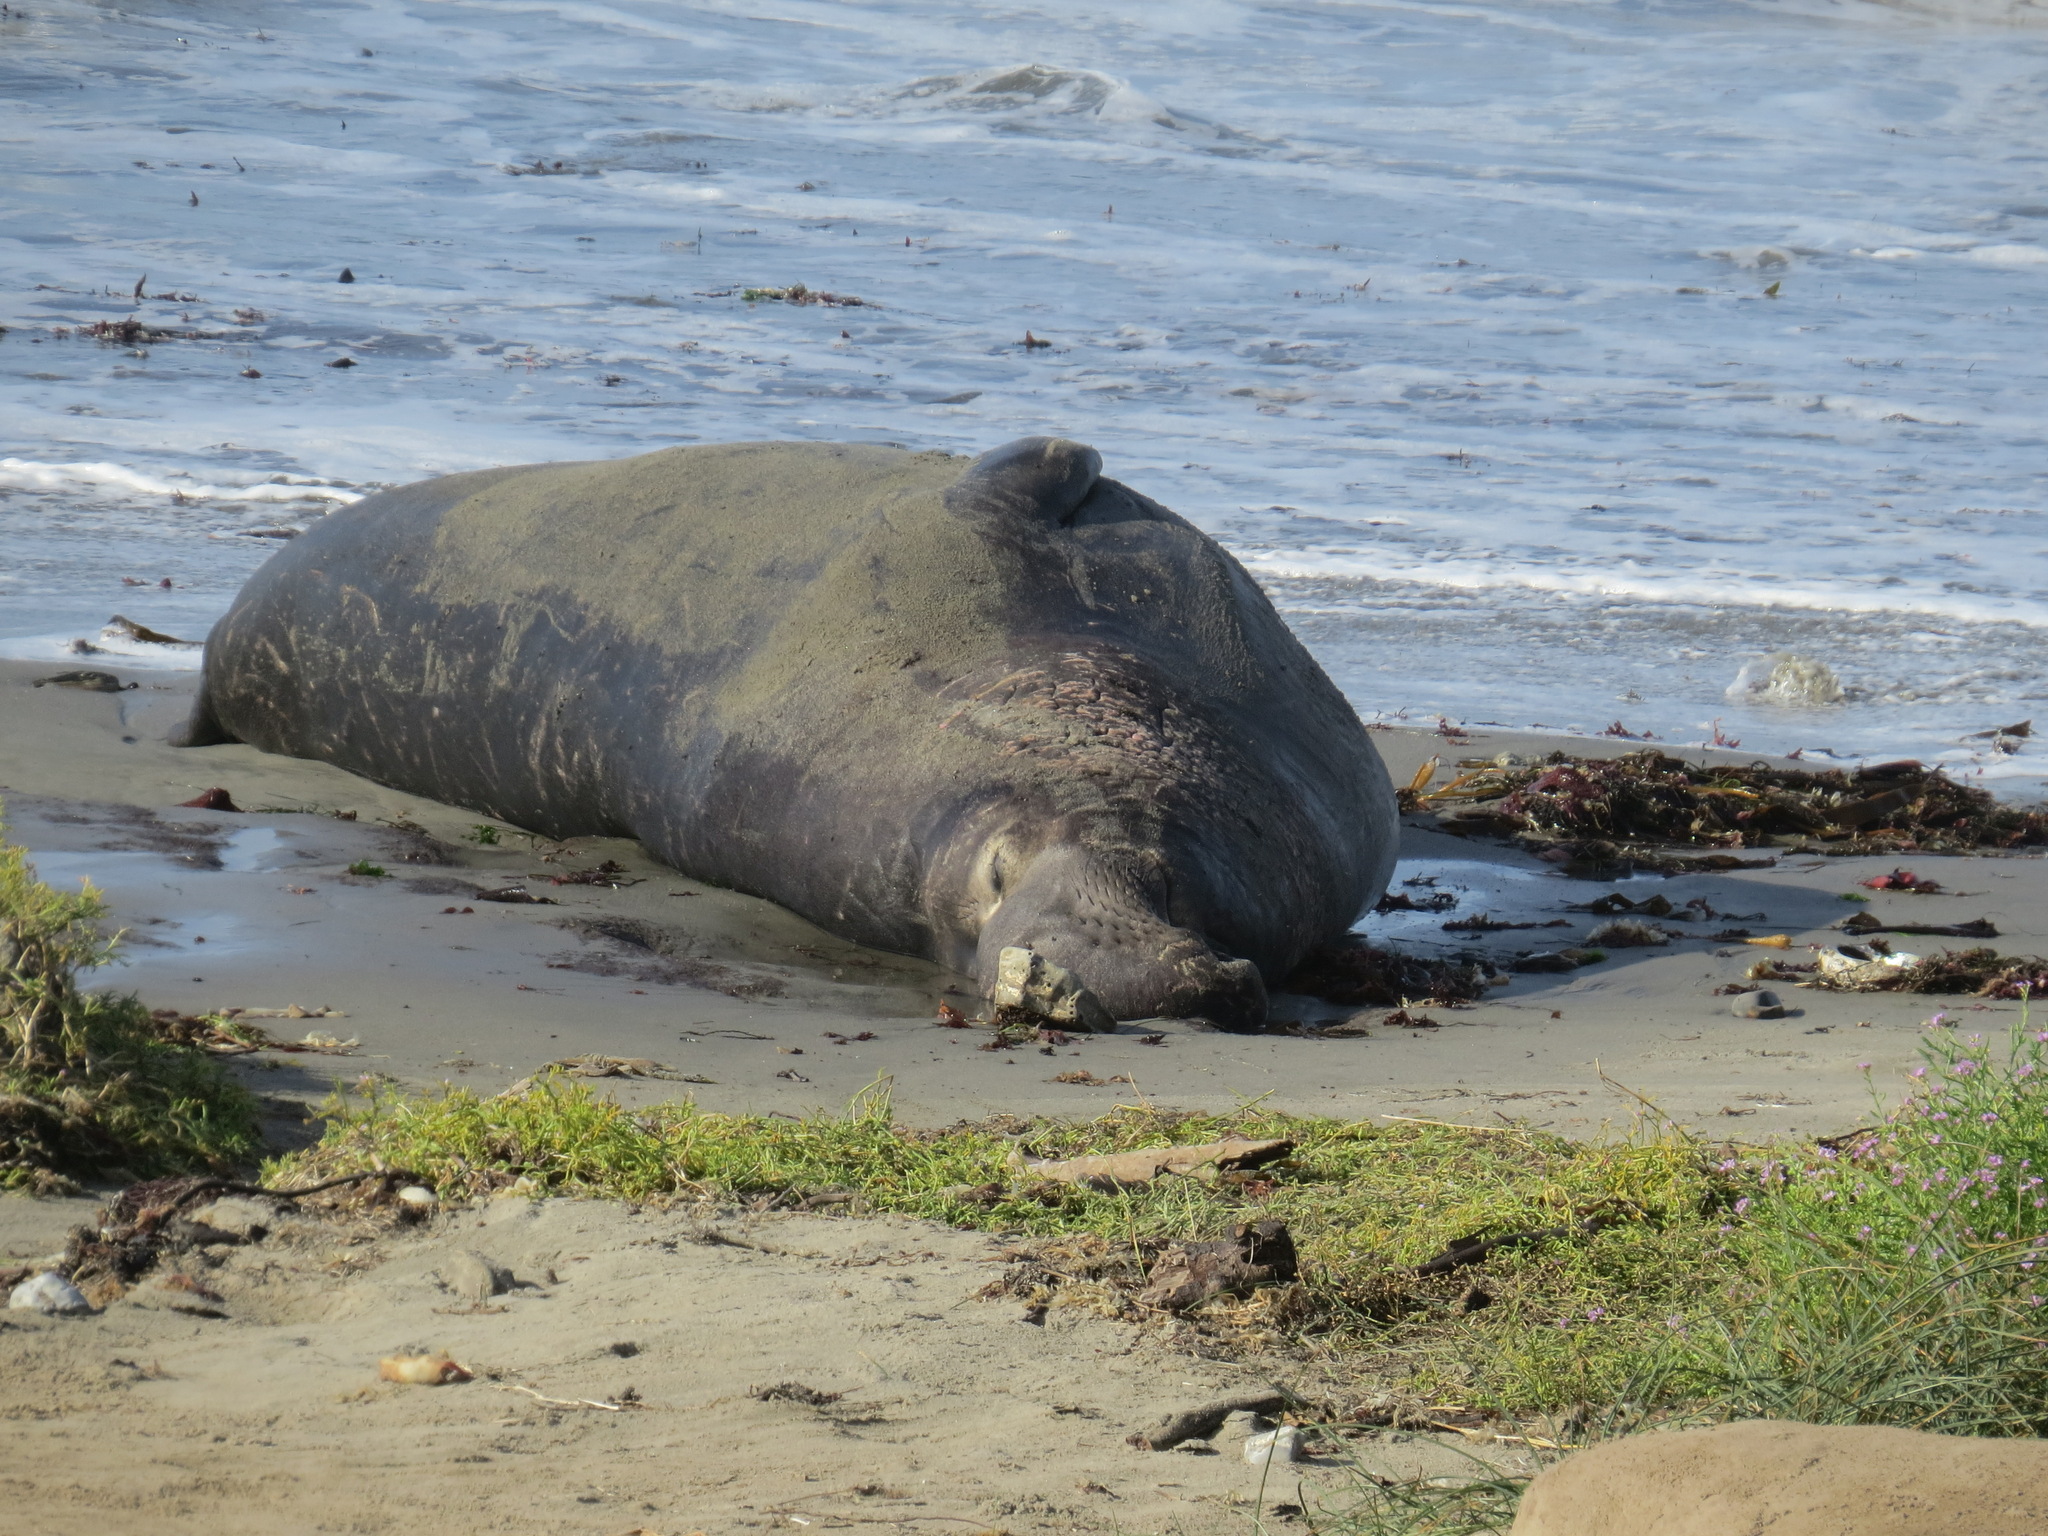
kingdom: Animalia
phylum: Chordata
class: Mammalia
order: Carnivora
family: Phocidae
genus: Mirounga
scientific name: Mirounga angustirostris
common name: Northern elephant seal
